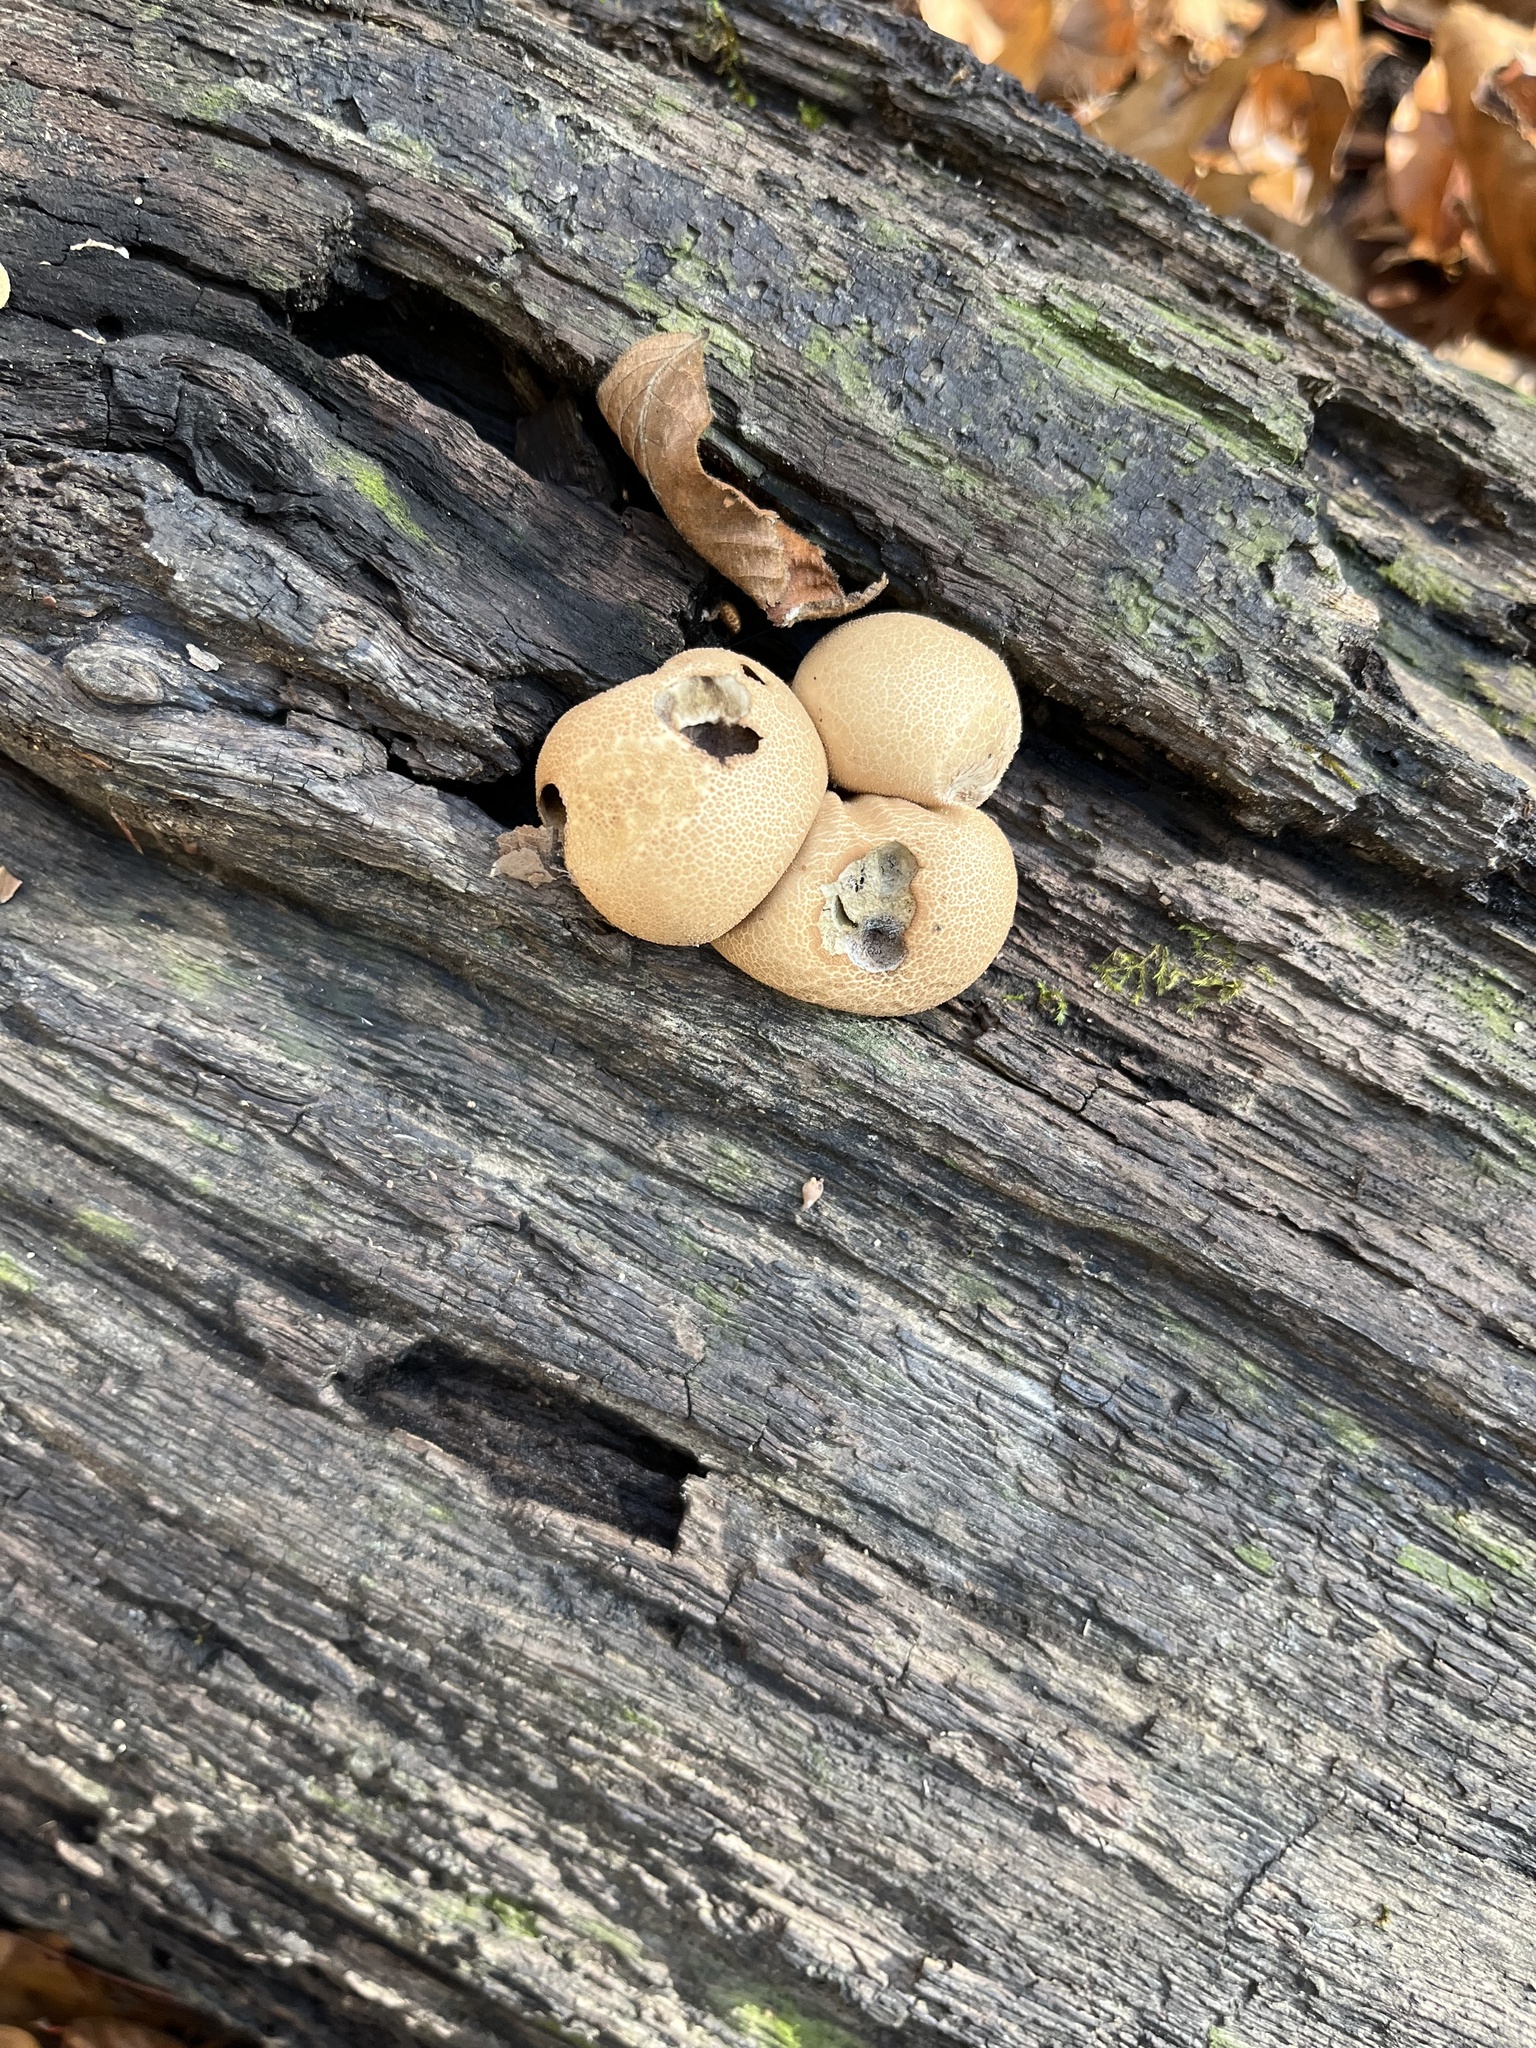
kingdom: Fungi
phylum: Basidiomycota
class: Agaricomycetes
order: Agaricales
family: Lycoperdaceae
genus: Apioperdon
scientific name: Apioperdon pyriforme
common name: Pear-shaped puffball
